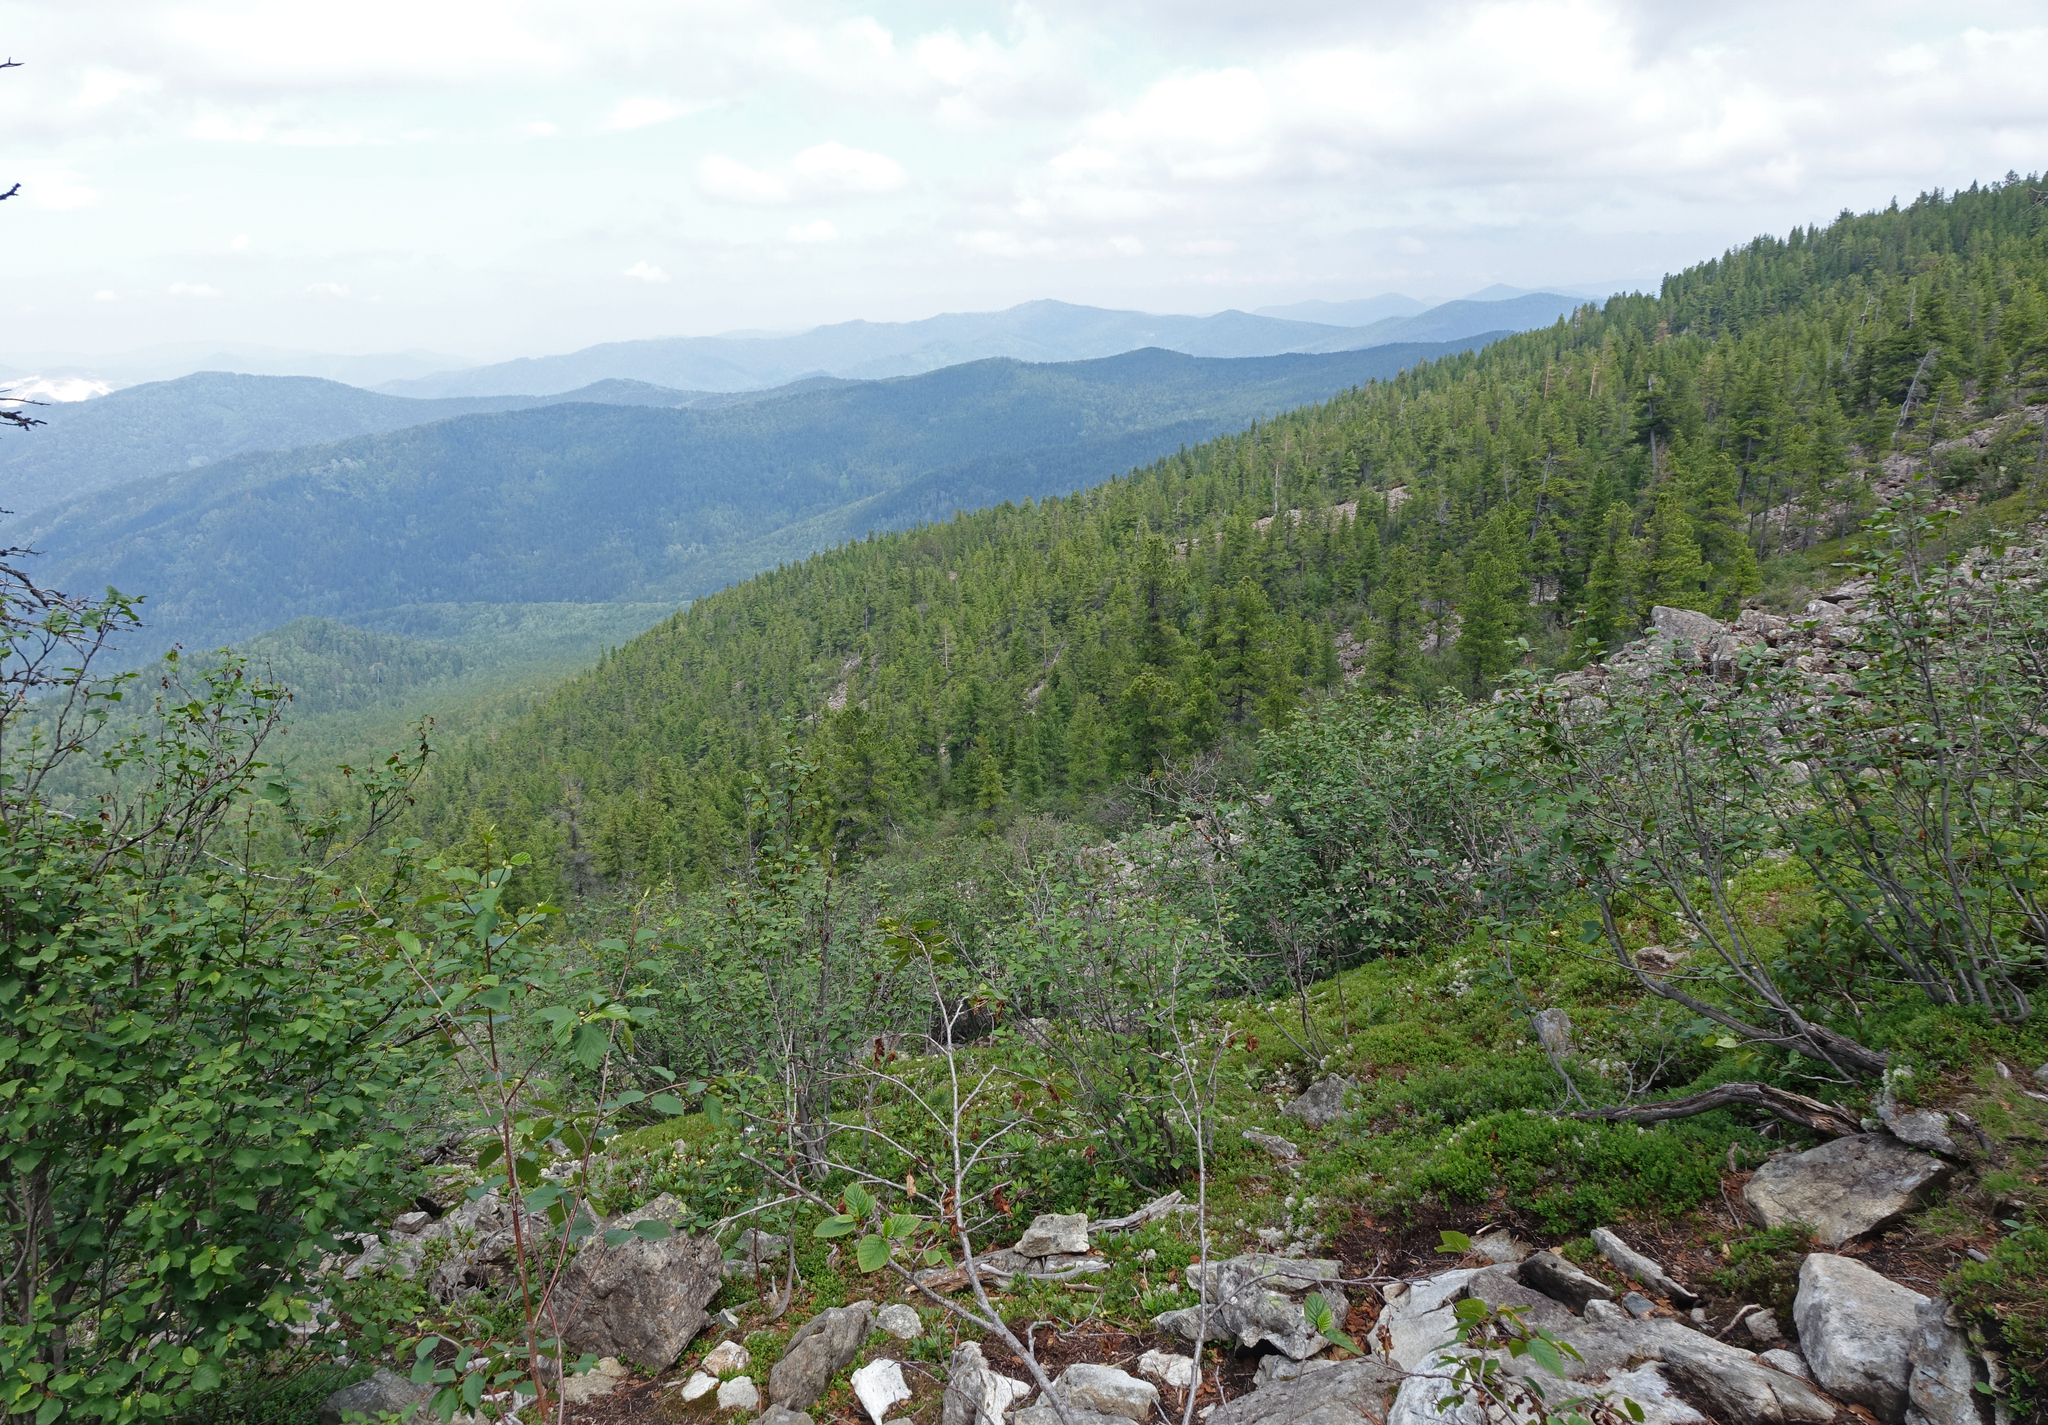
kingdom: Plantae
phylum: Tracheophyta
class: Pinopsida
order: Pinales
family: Pinaceae
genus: Pinus
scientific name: Pinus sibirica
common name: Siberian pine
